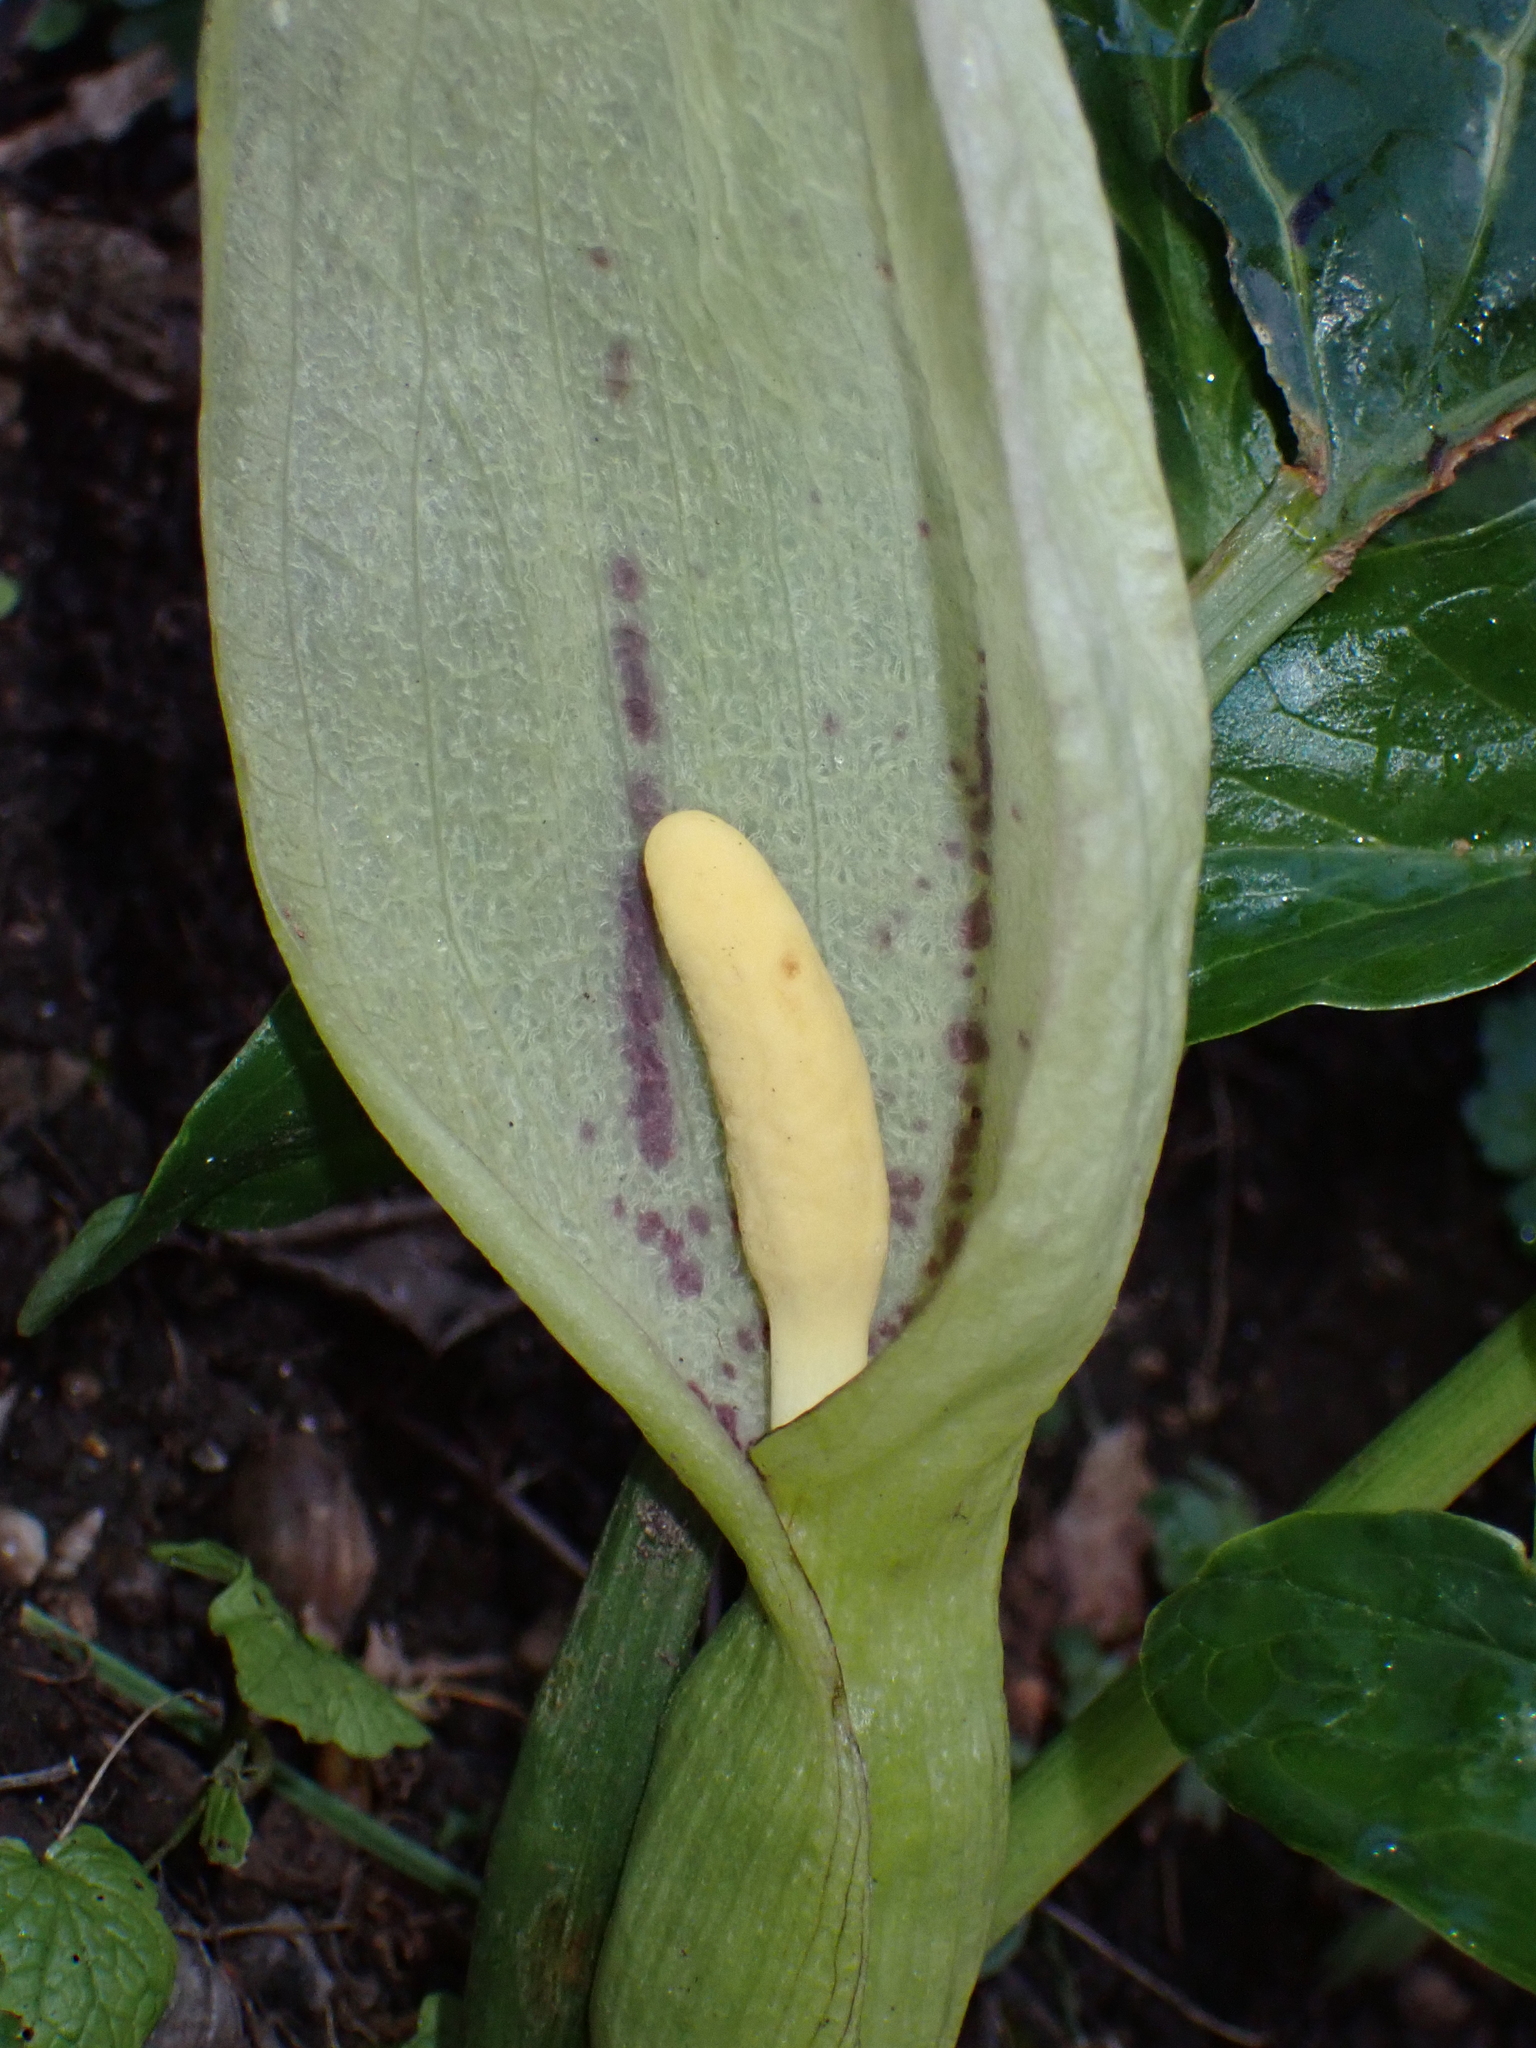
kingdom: Plantae
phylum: Tracheophyta
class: Liliopsida
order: Alismatales
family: Araceae
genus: Arum
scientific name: Arum italicum
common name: Italian lords-and-ladies
